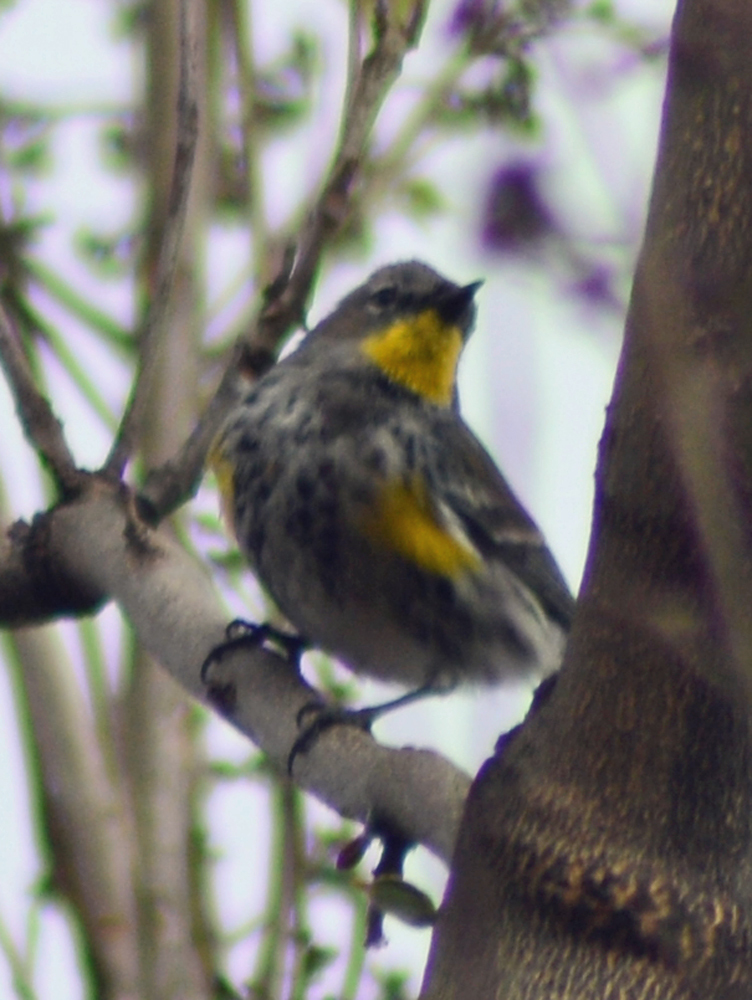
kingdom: Animalia
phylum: Chordata
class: Aves
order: Passeriformes
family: Parulidae
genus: Setophaga
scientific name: Setophaga auduboni
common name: Audubon's warbler
